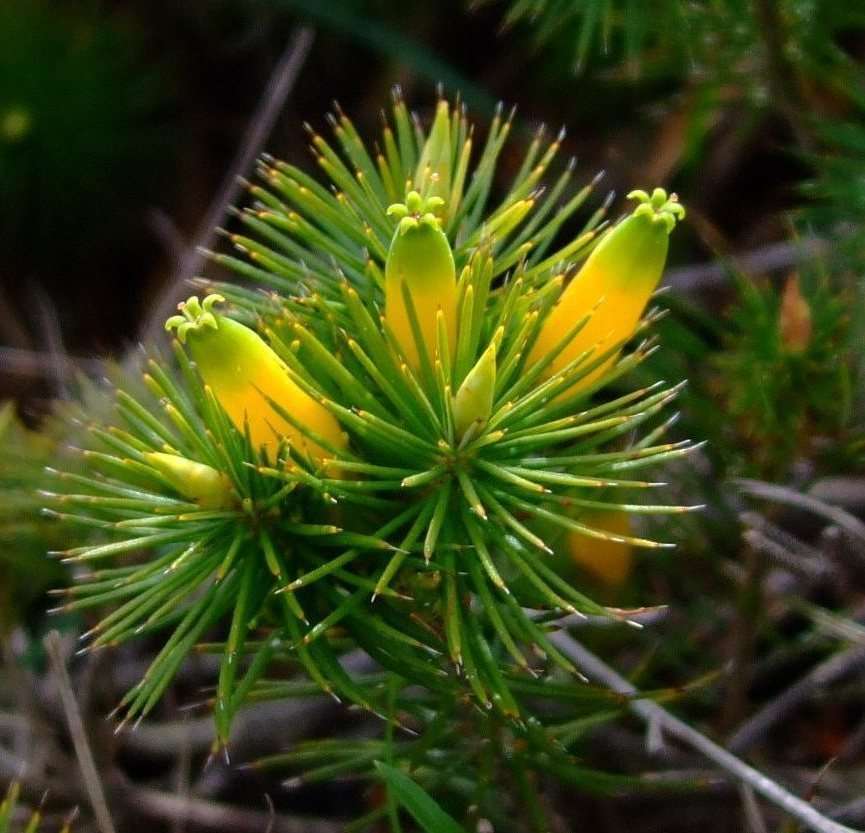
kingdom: Plantae
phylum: Tracheophyta
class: Magnoliopsida
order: Ericales
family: Ericaceae
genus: Stenanthera
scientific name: Stenanthera pinifolia
